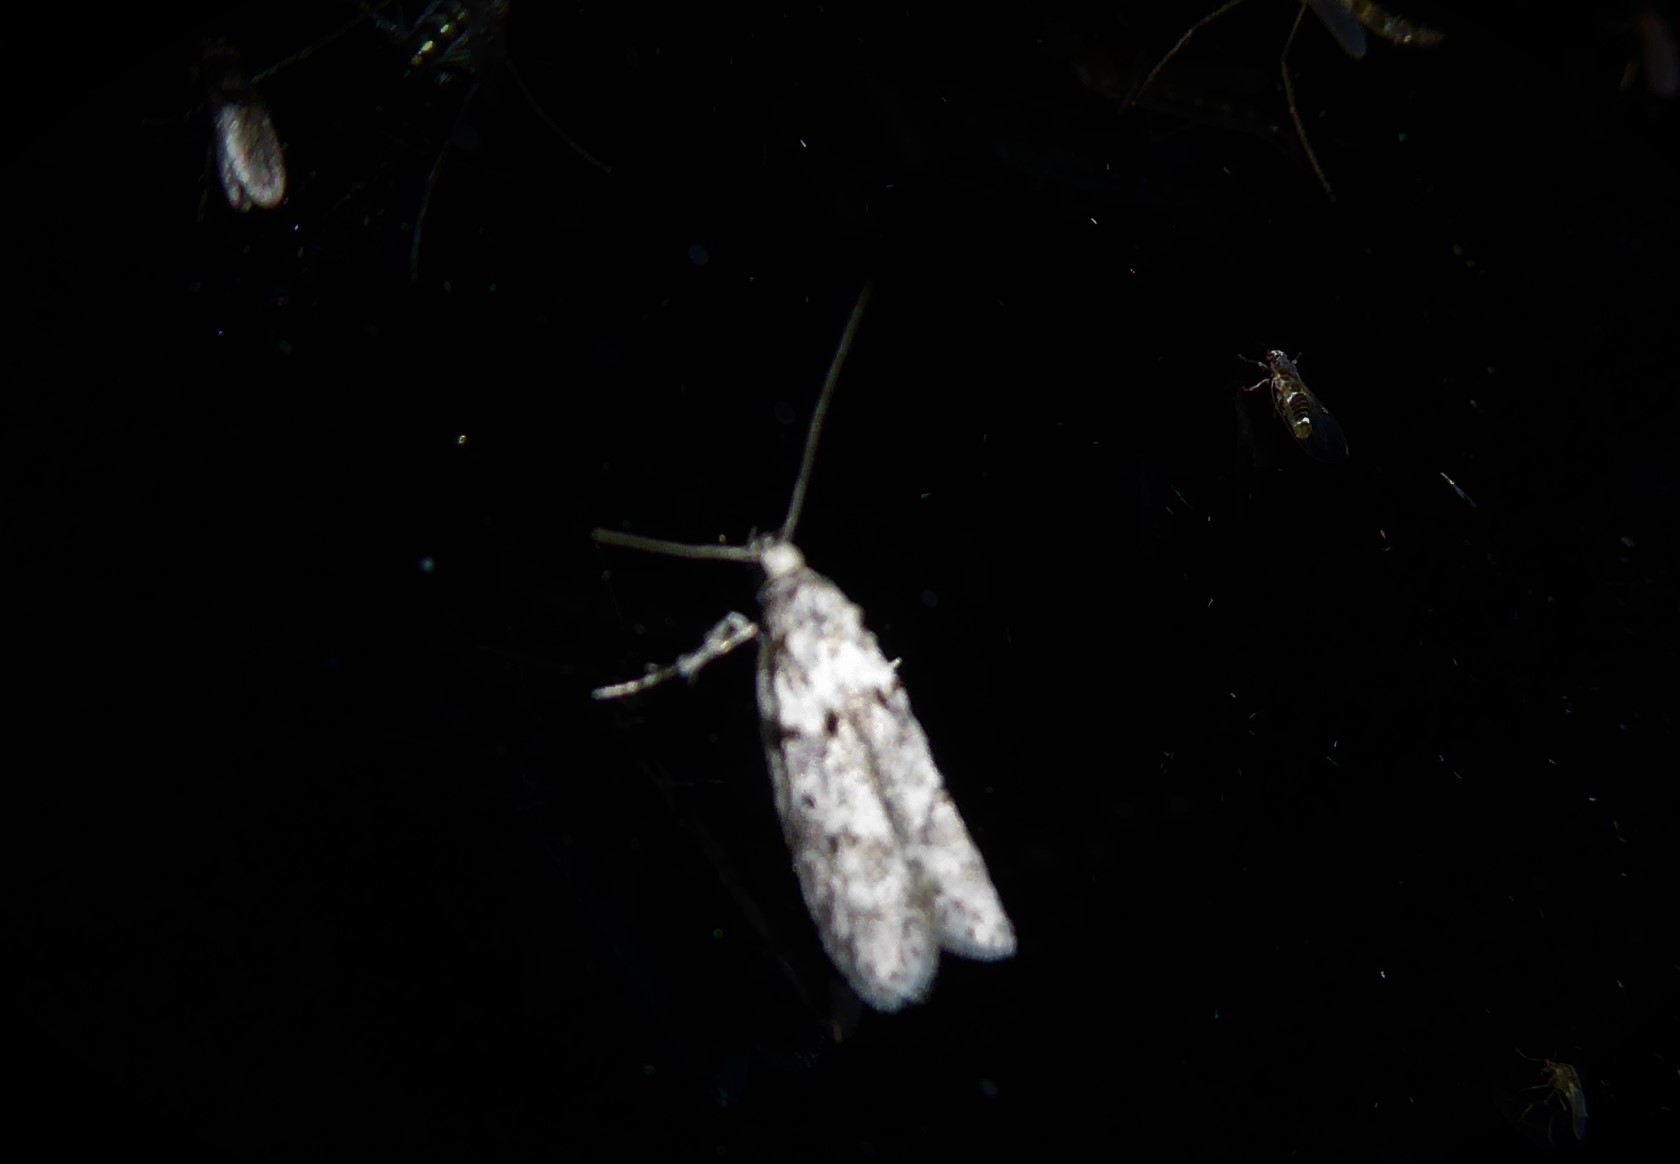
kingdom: Animalia
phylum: Arthropoda
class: Insecta
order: Lepidoptera
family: Oecophoridae
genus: Izatha
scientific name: Izatha convulsella
